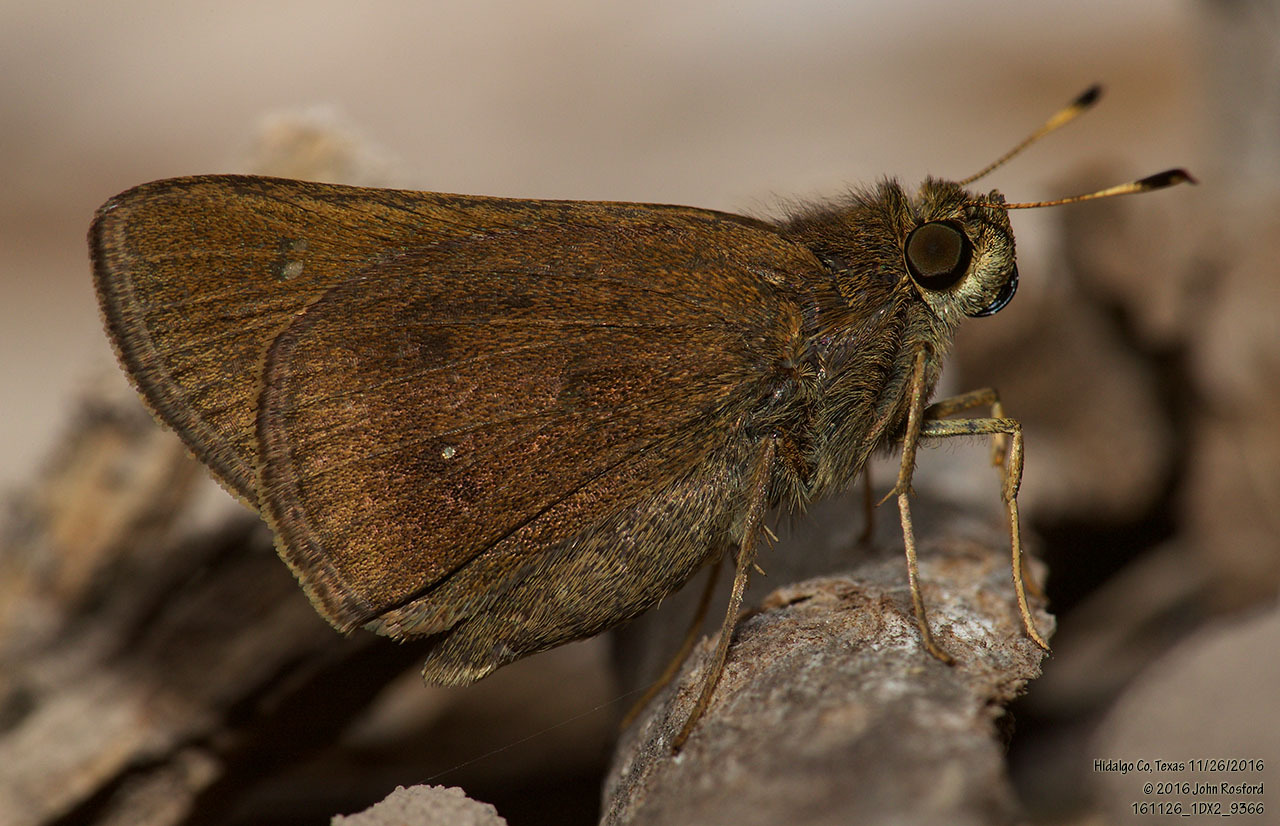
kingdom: Animalia
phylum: Arthropoda
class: Insecta
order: Lepidoptera
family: Hesperiidae
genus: Decinea
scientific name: Decinea percosius
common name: Double-dotted skipper
